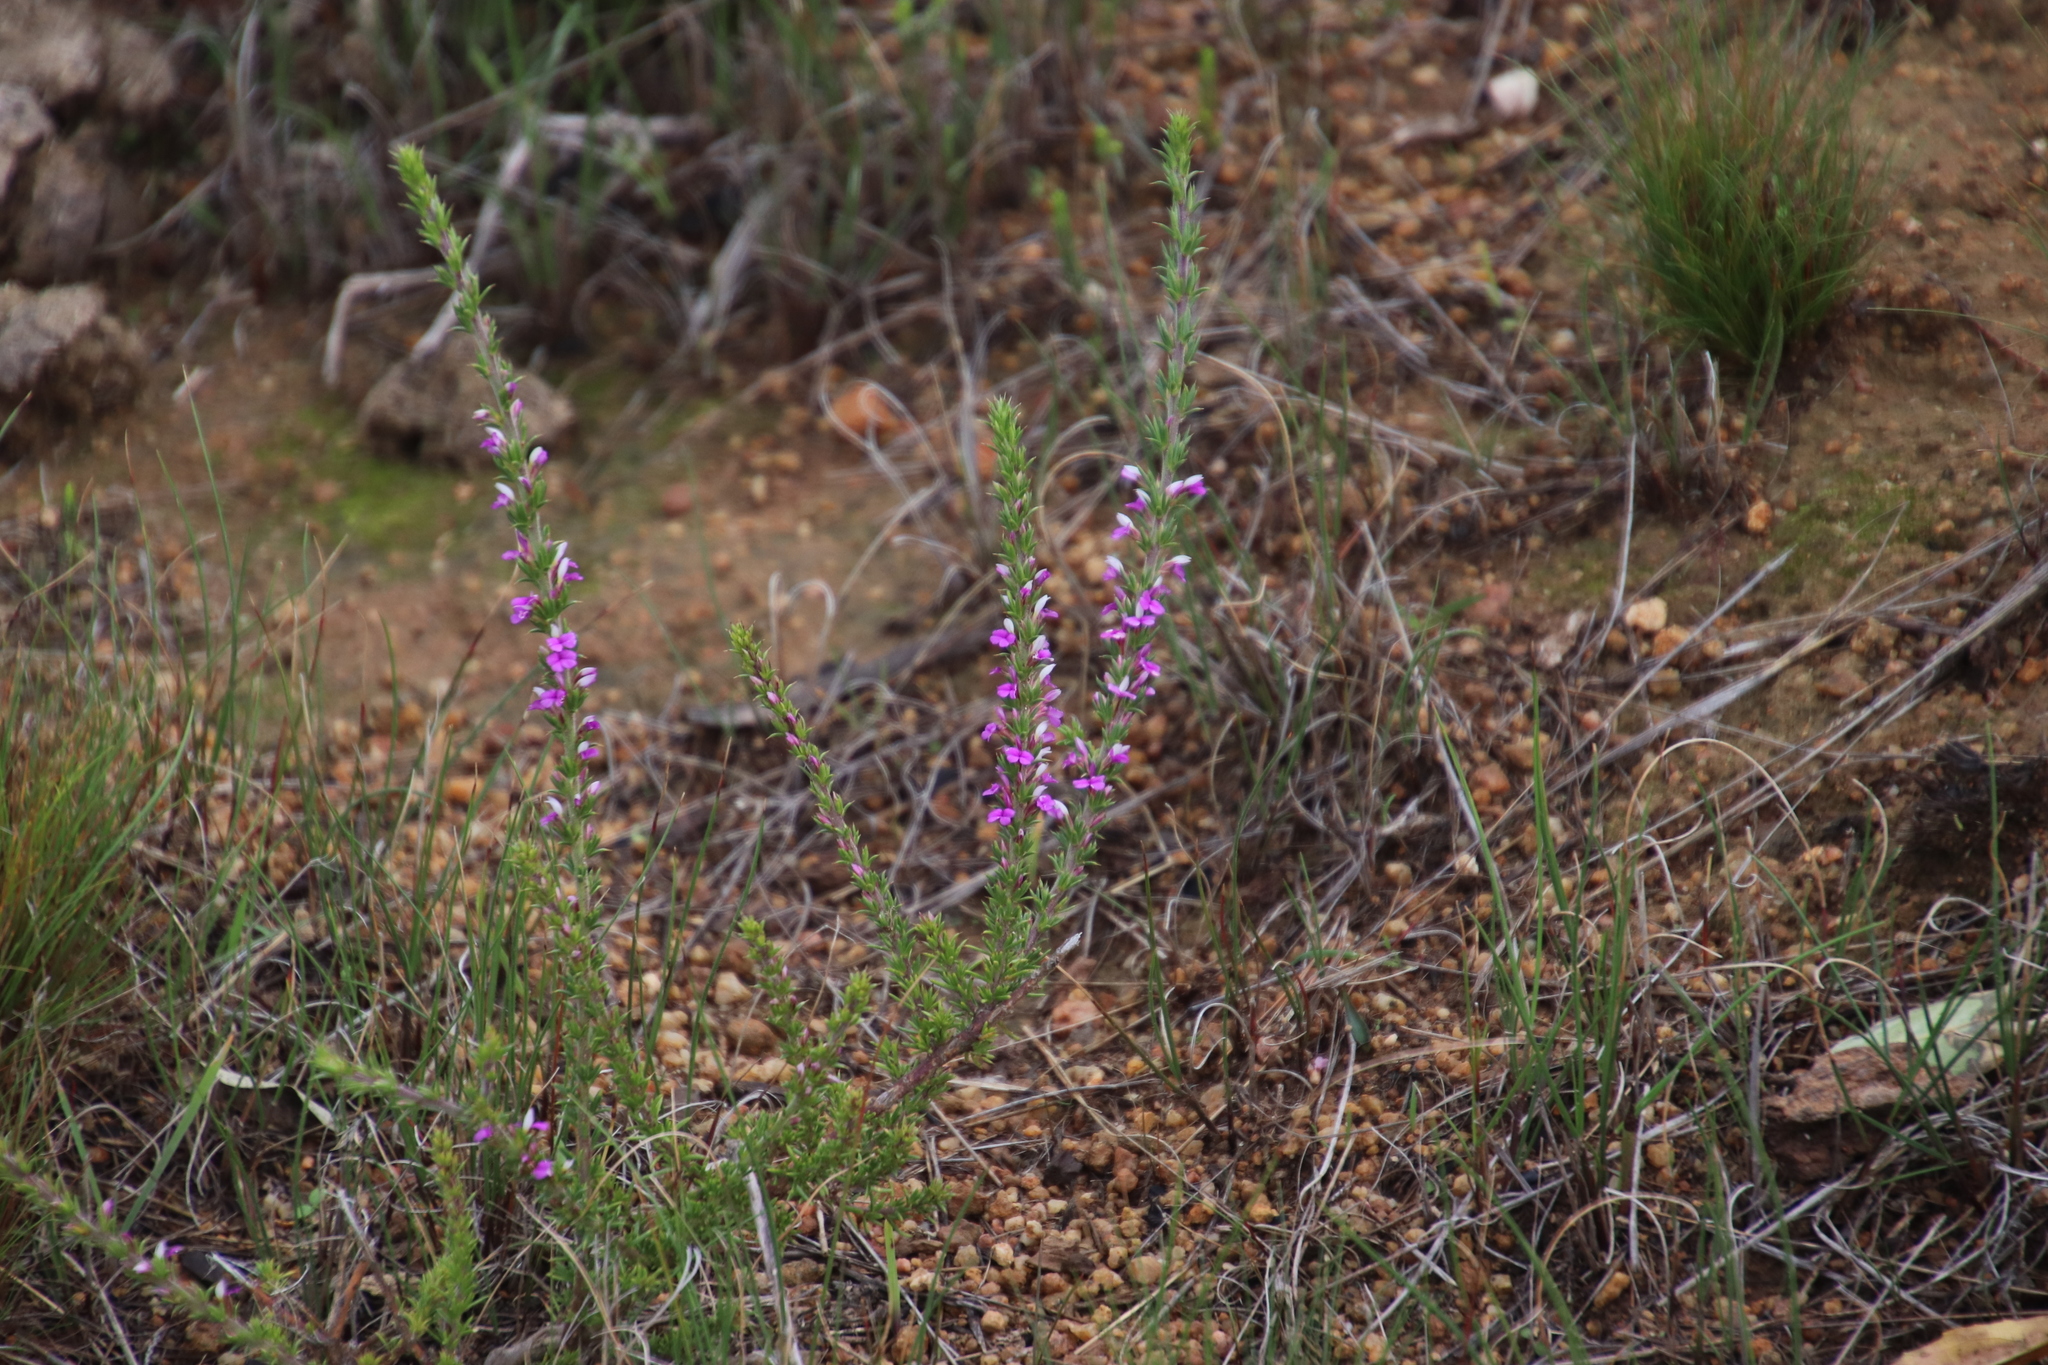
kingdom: Plantae
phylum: Tracheophyta
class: Magnoliopsida
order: Fabales
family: Polygalaceae
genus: Muraltia
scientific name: Muraltia heisteria
